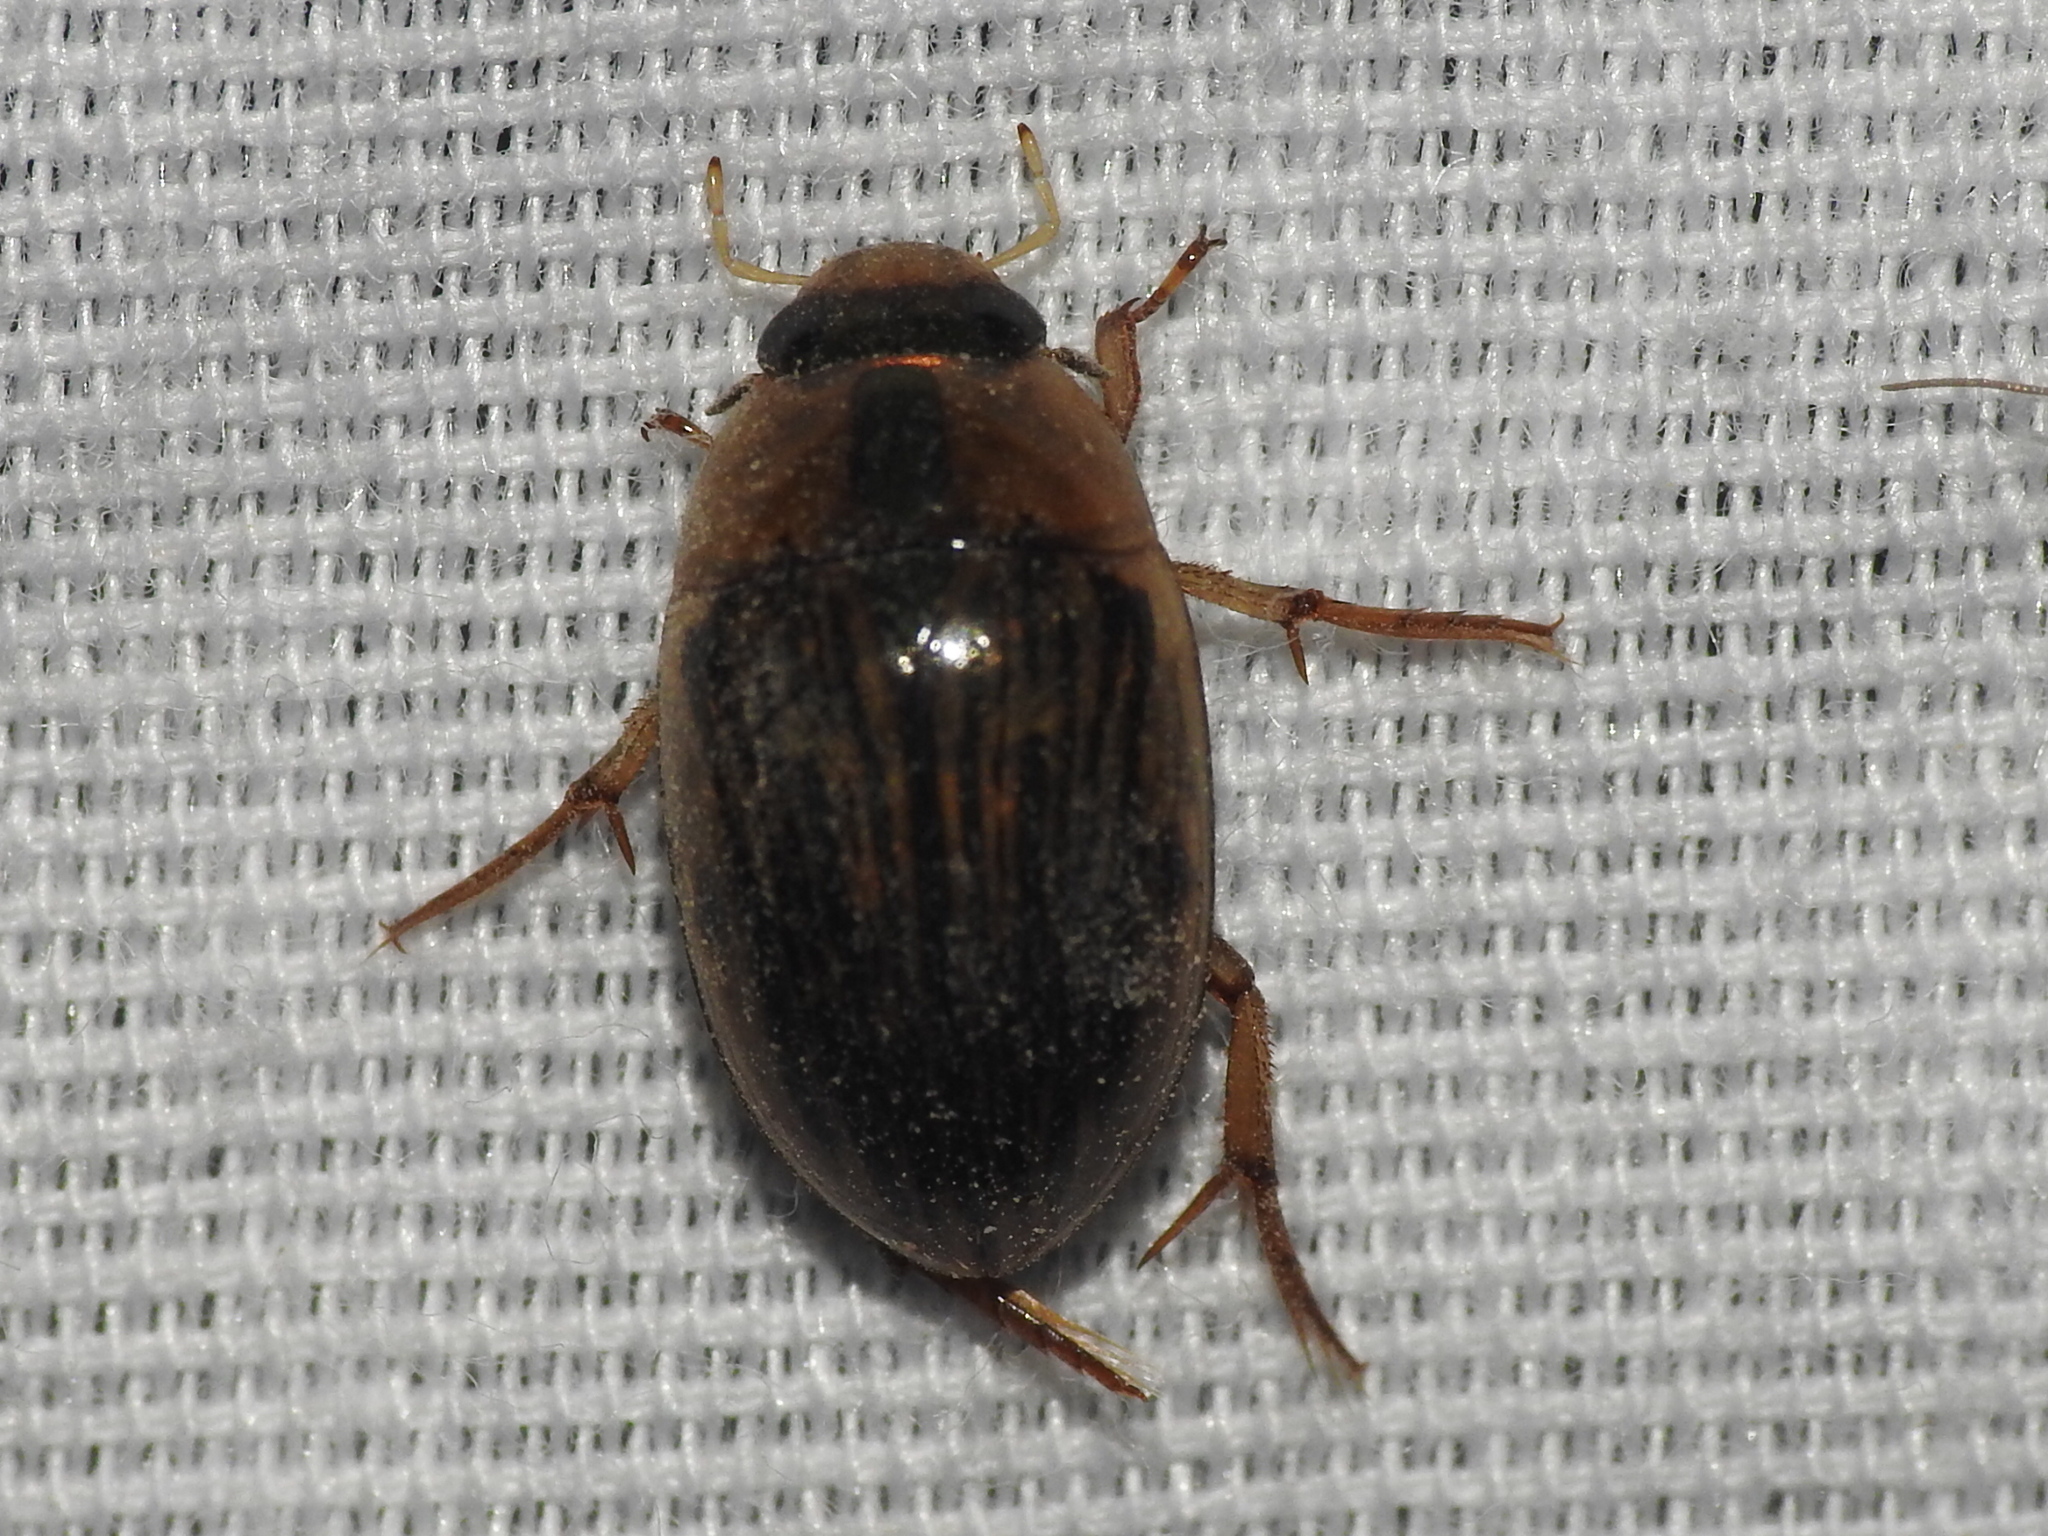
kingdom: Animalia
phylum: Arthropoda
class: Insecta
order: Coleoptera
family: Hydrophilidae
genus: Tropisternus
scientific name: Tropisternus collaris
